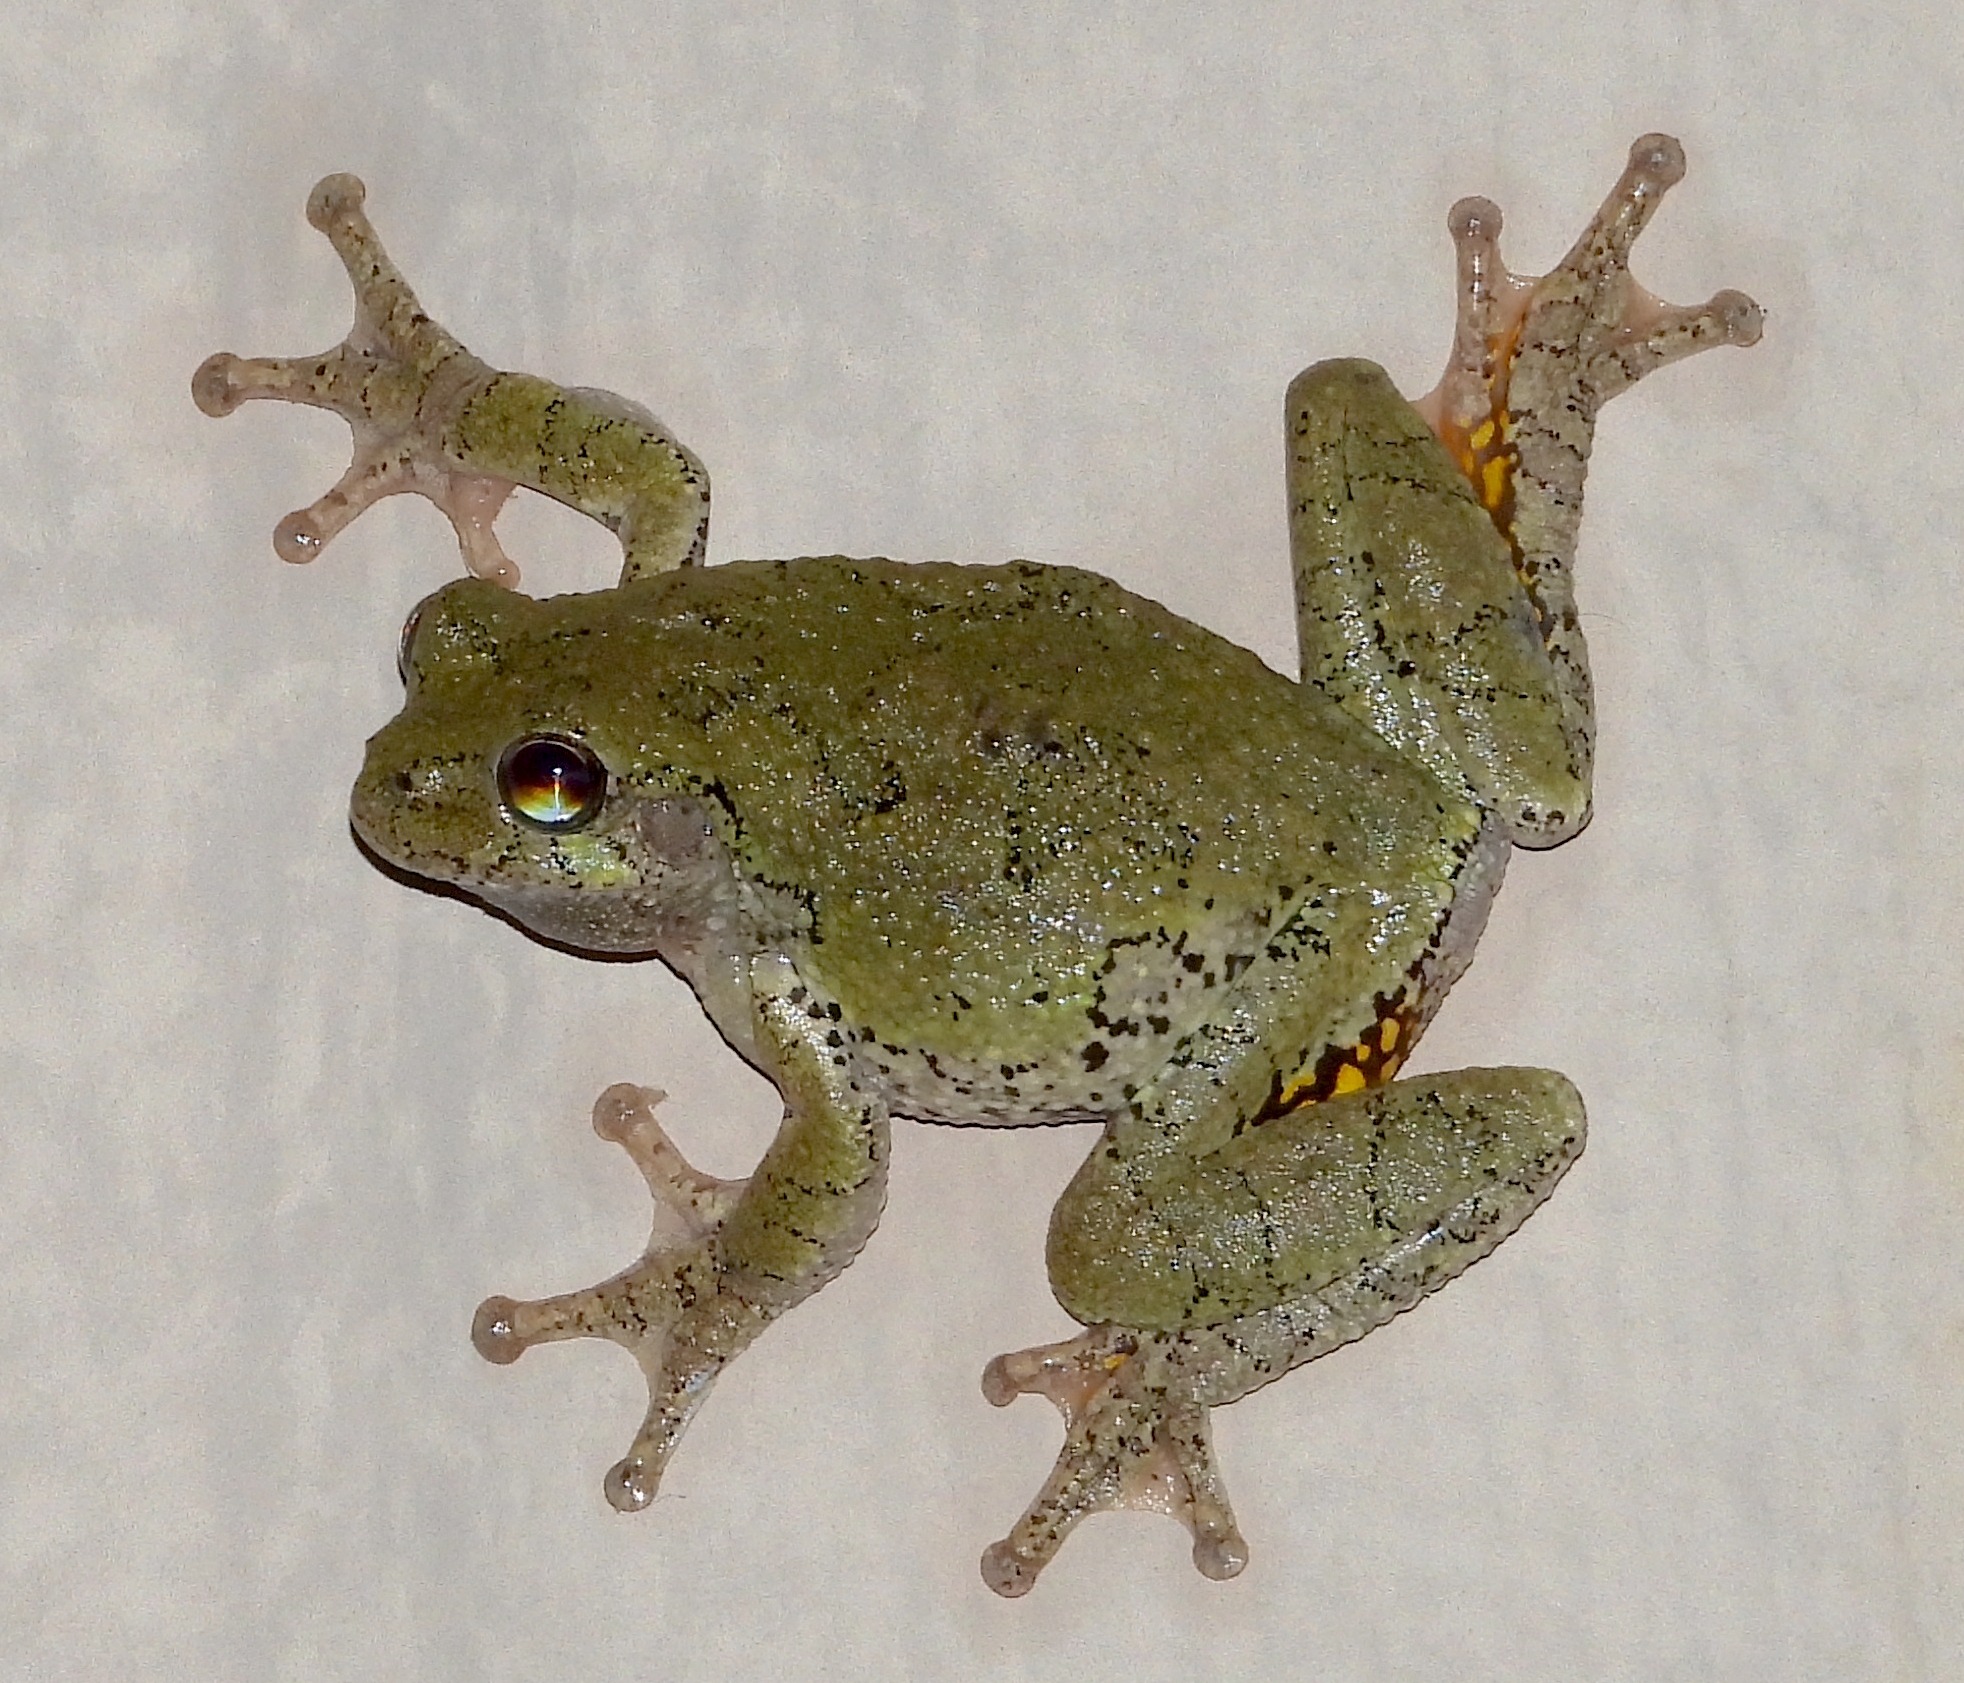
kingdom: Animalia
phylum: Chordata
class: Amphibia
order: Anura
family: Hylidae
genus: Hyla
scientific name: Hyla
